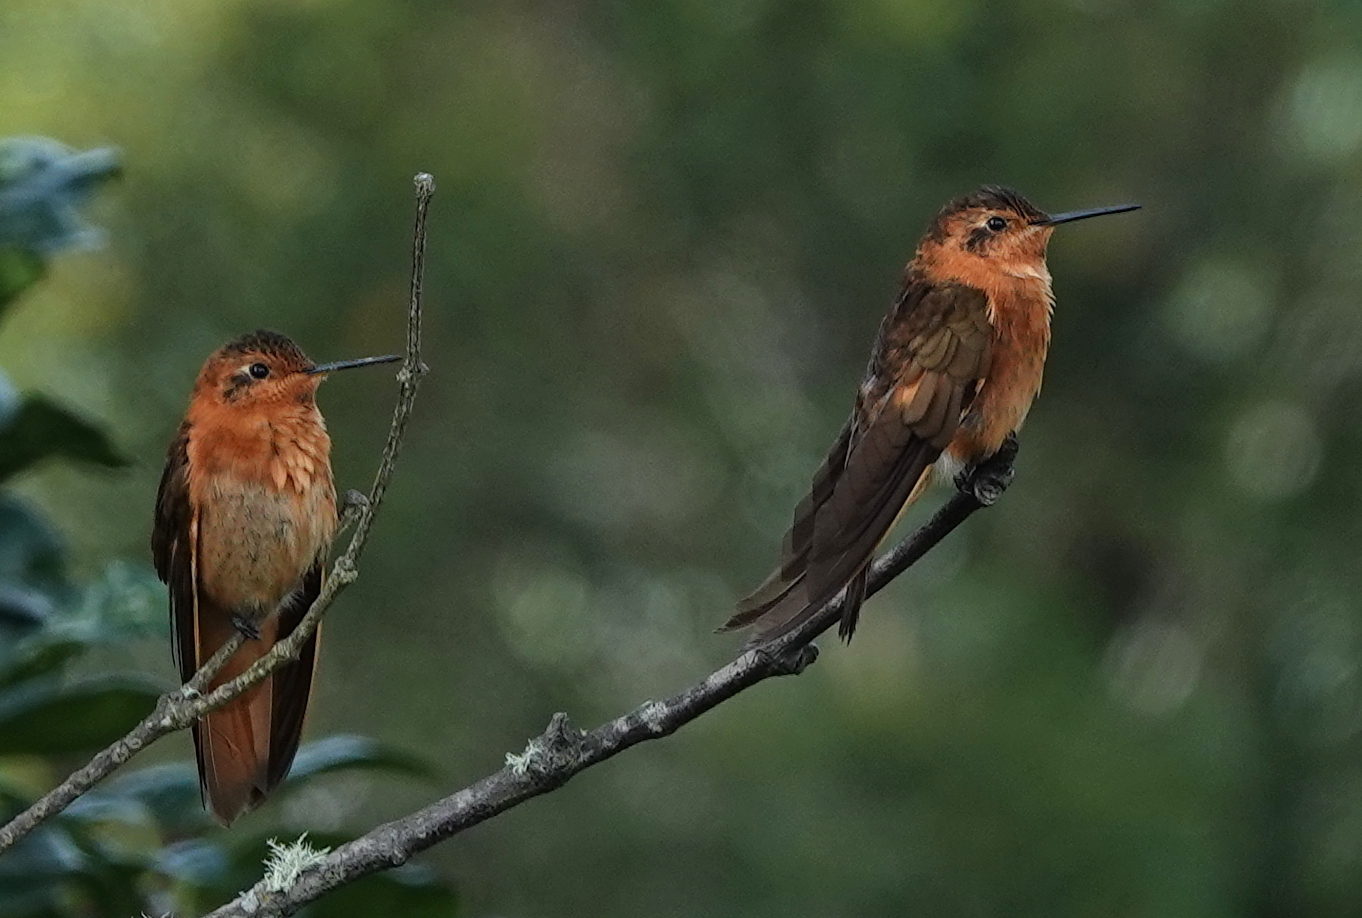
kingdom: Animalia
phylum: Chordata
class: Aves
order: Apodiformes
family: Trochilidae
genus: Aglaeactis
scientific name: Aglaeactis cupripennis
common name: Shining sunbeam
